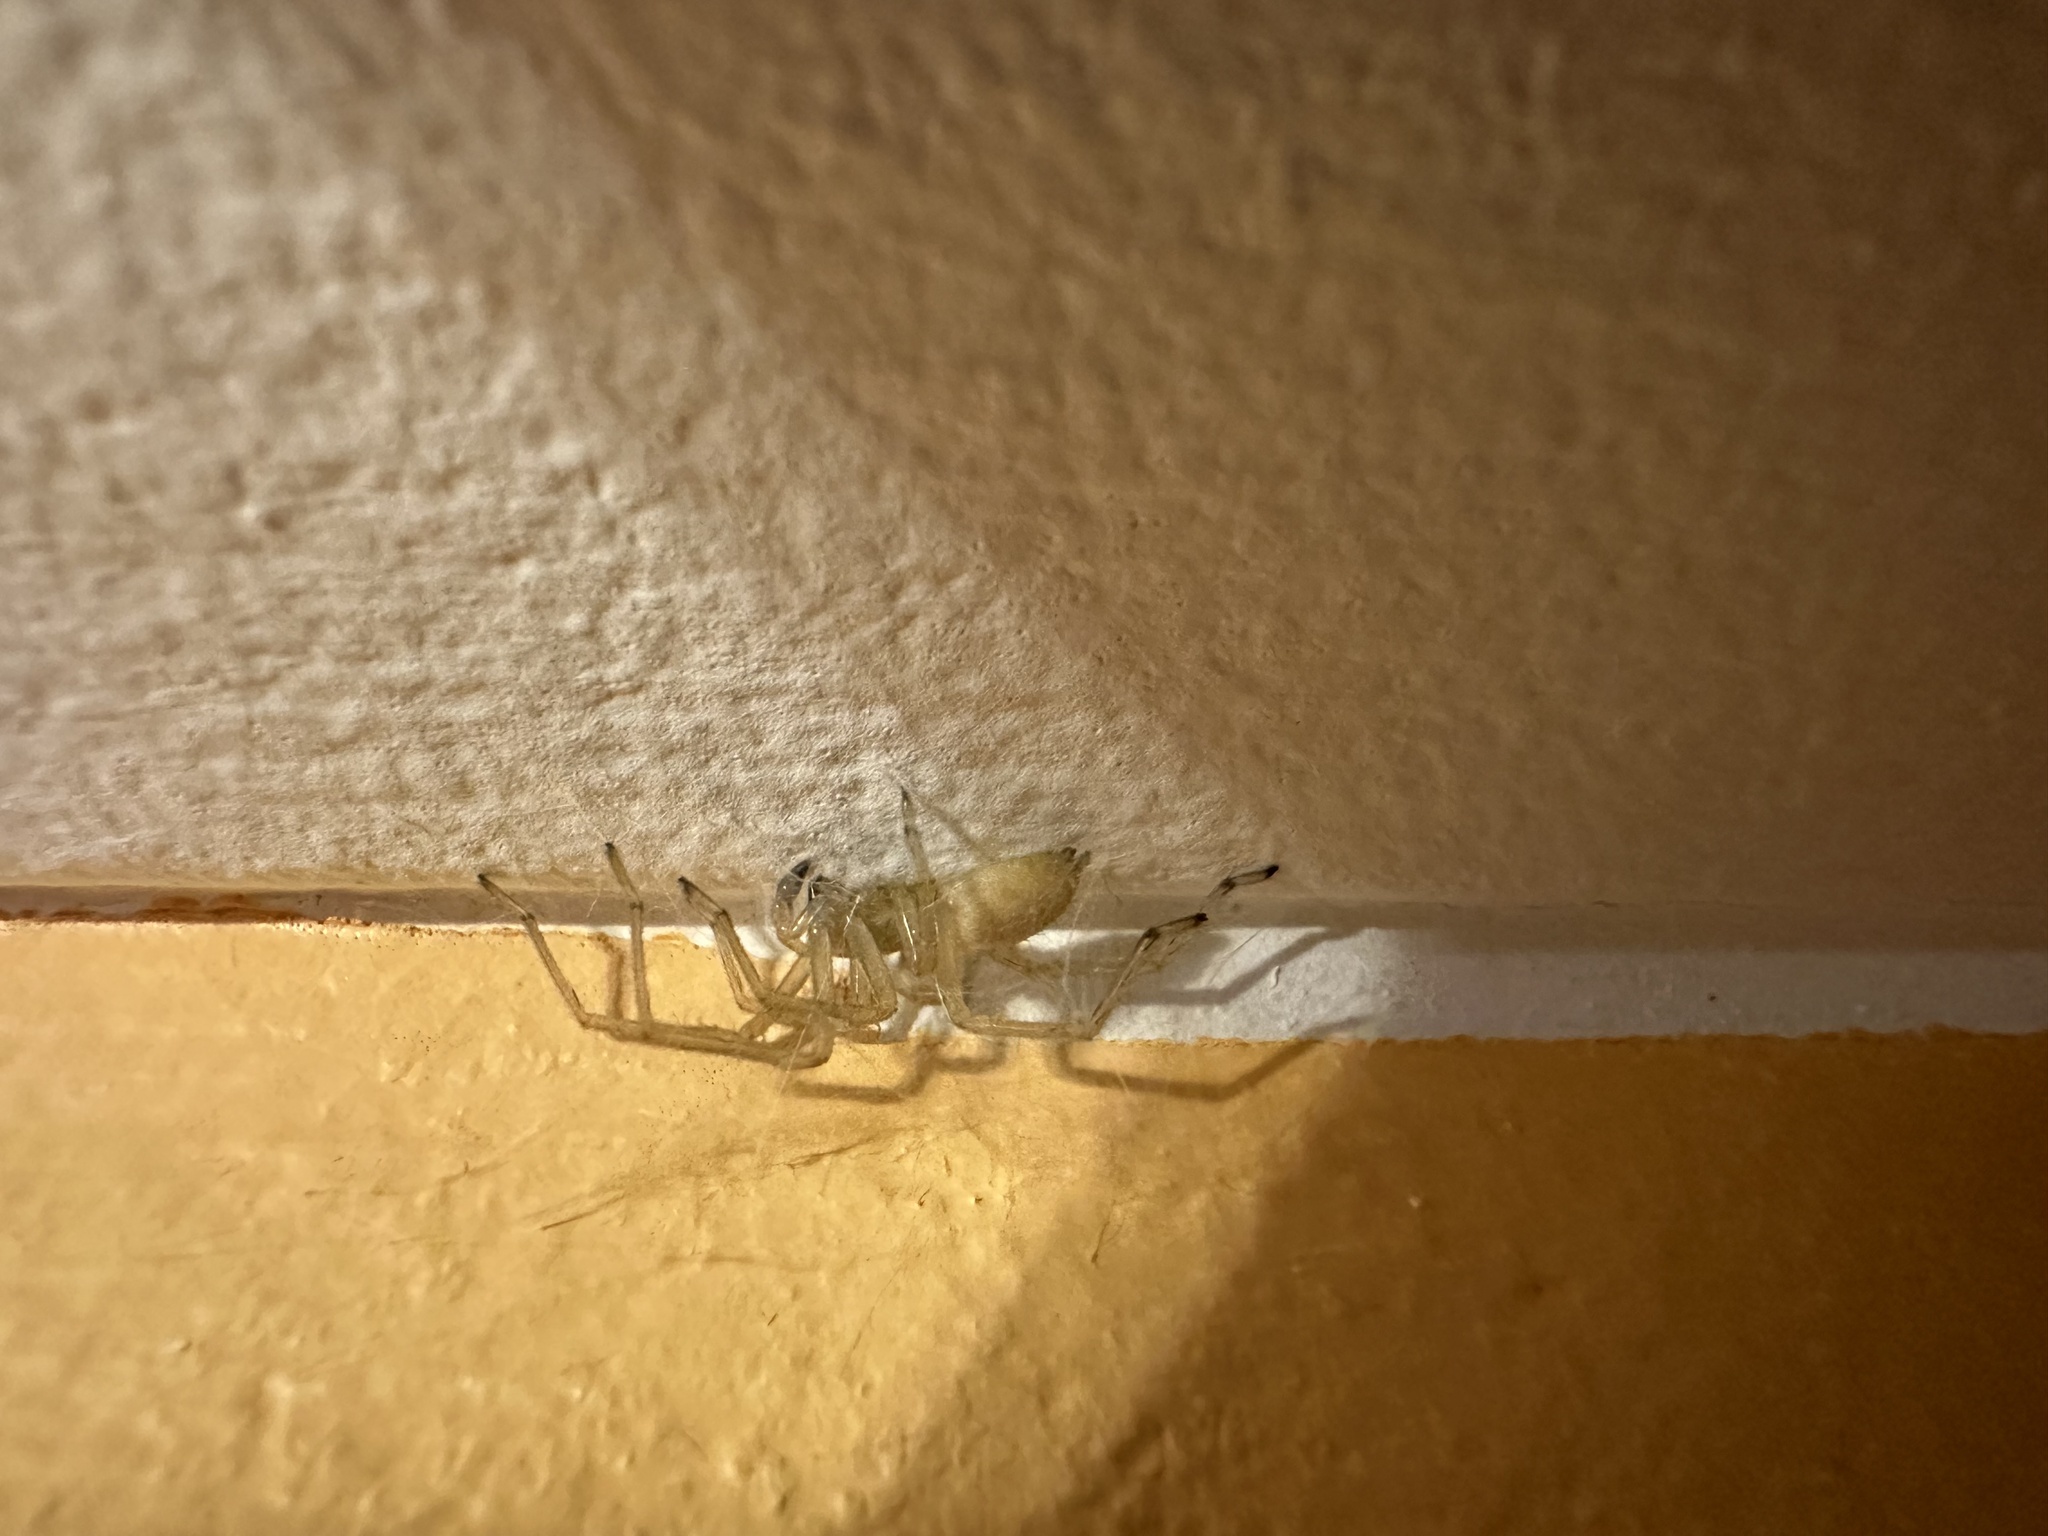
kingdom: Animalia
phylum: Arthropoda
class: Arachnida
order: Araneae
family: Cheiracanthiidae
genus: Cheiracanthium
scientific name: Cheiracanthium
